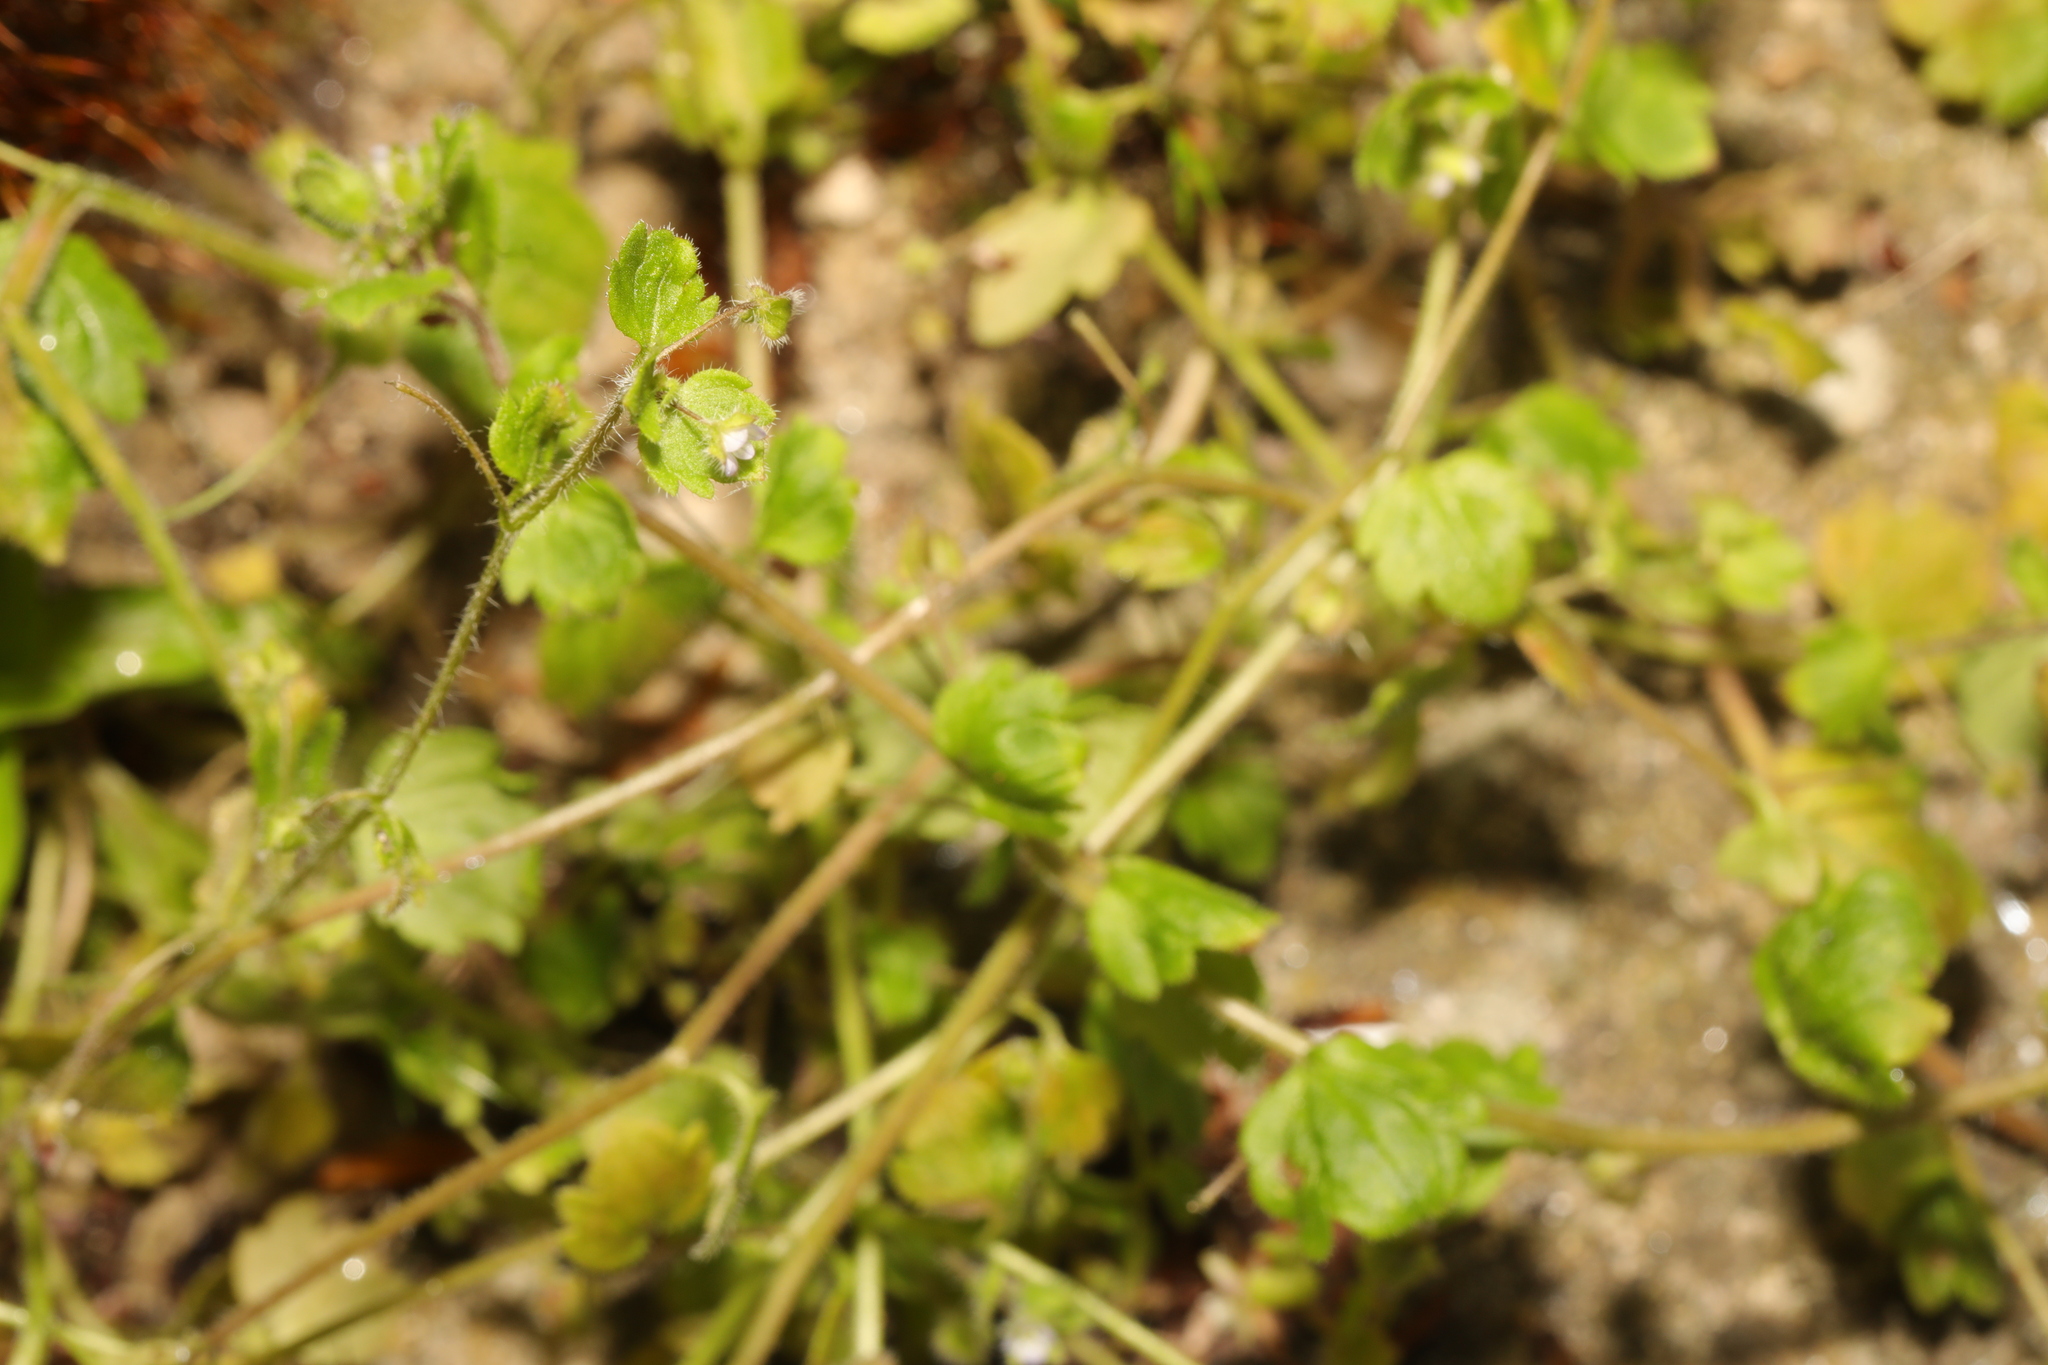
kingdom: Plantae
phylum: Tracheophyta
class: Magnoliopsida
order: Lamiales
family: Plantaginaceae
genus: Veronica
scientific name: Veronica sublobata
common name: False ivy-leaved speedwell
